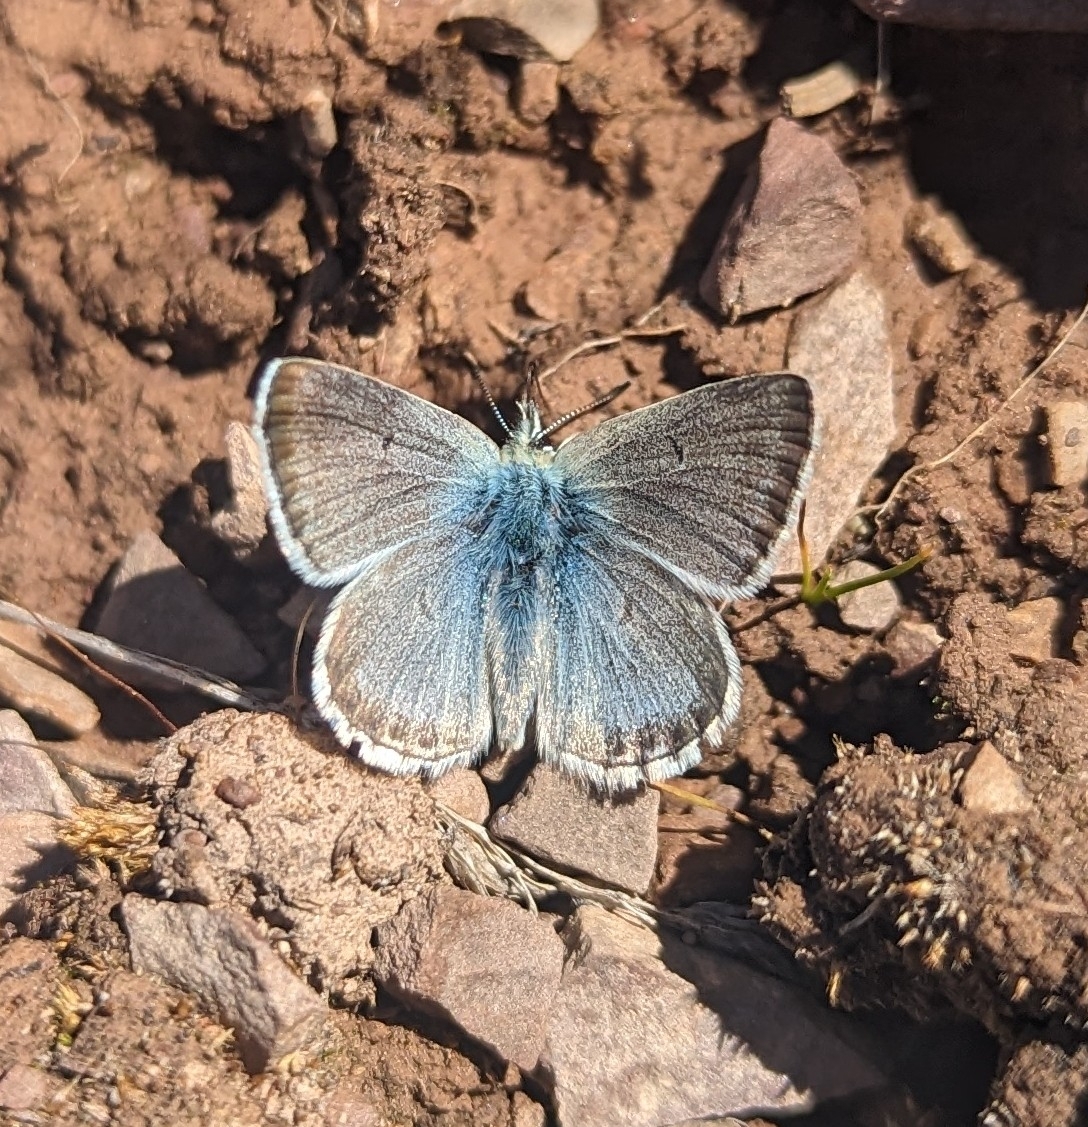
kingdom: Animalia
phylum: Arthropoda
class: Insecta
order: Lepidoptera
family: Lycaenidae
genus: Agriades
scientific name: Agriades glandon
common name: Glandon blue
